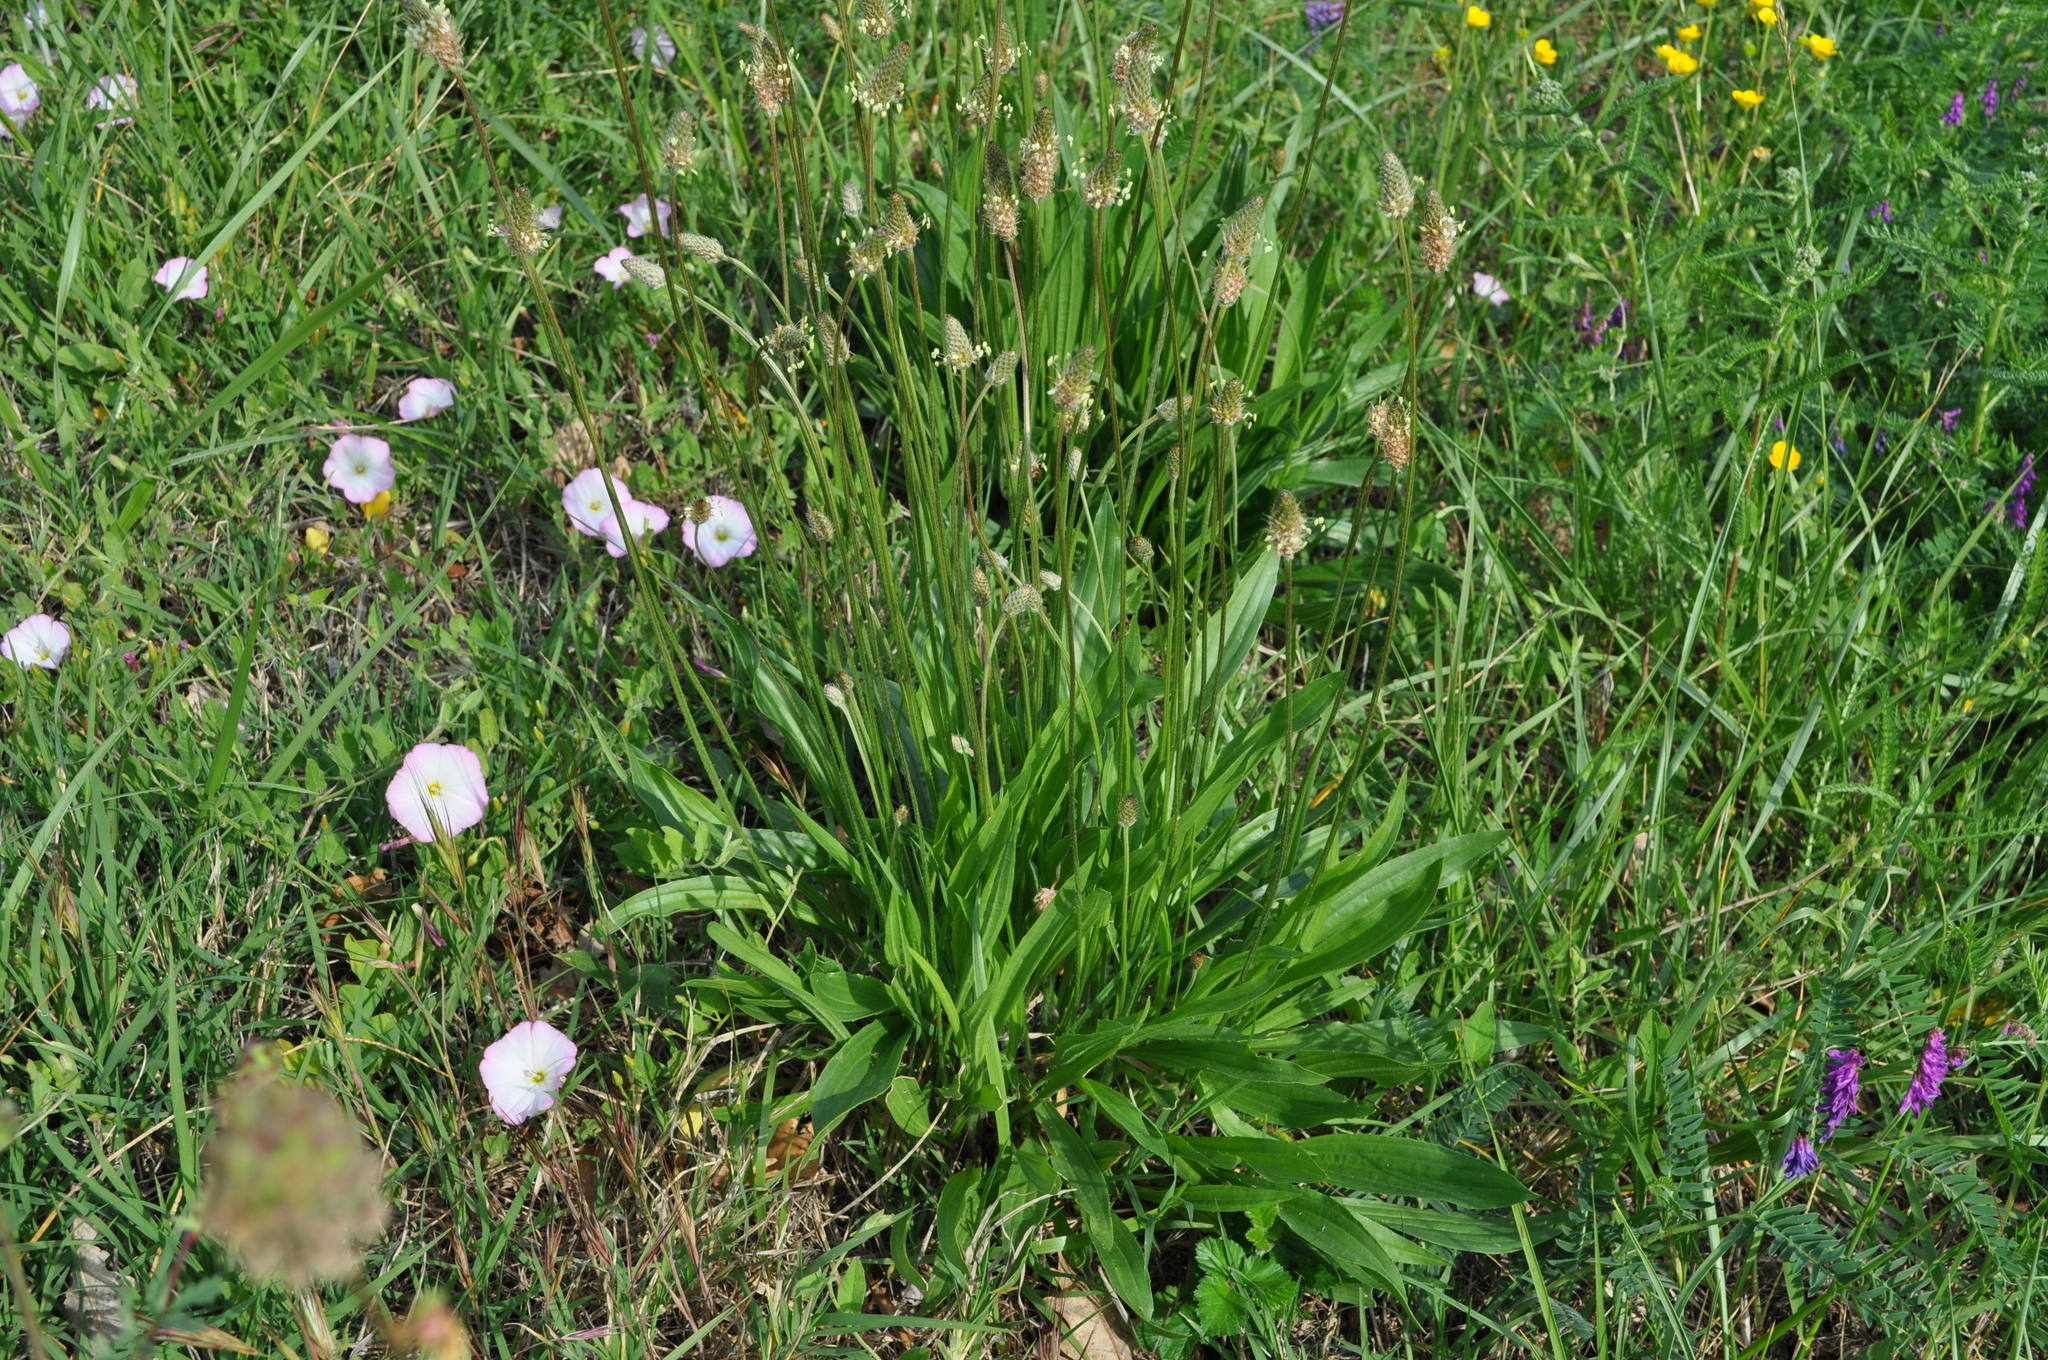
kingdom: Plantae
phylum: Tracheophyta
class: Magnoliopsida
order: Lamiales
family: Plantaginaceae
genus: Plantago
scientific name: Plantago lanceolata
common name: Ribwort plantain
